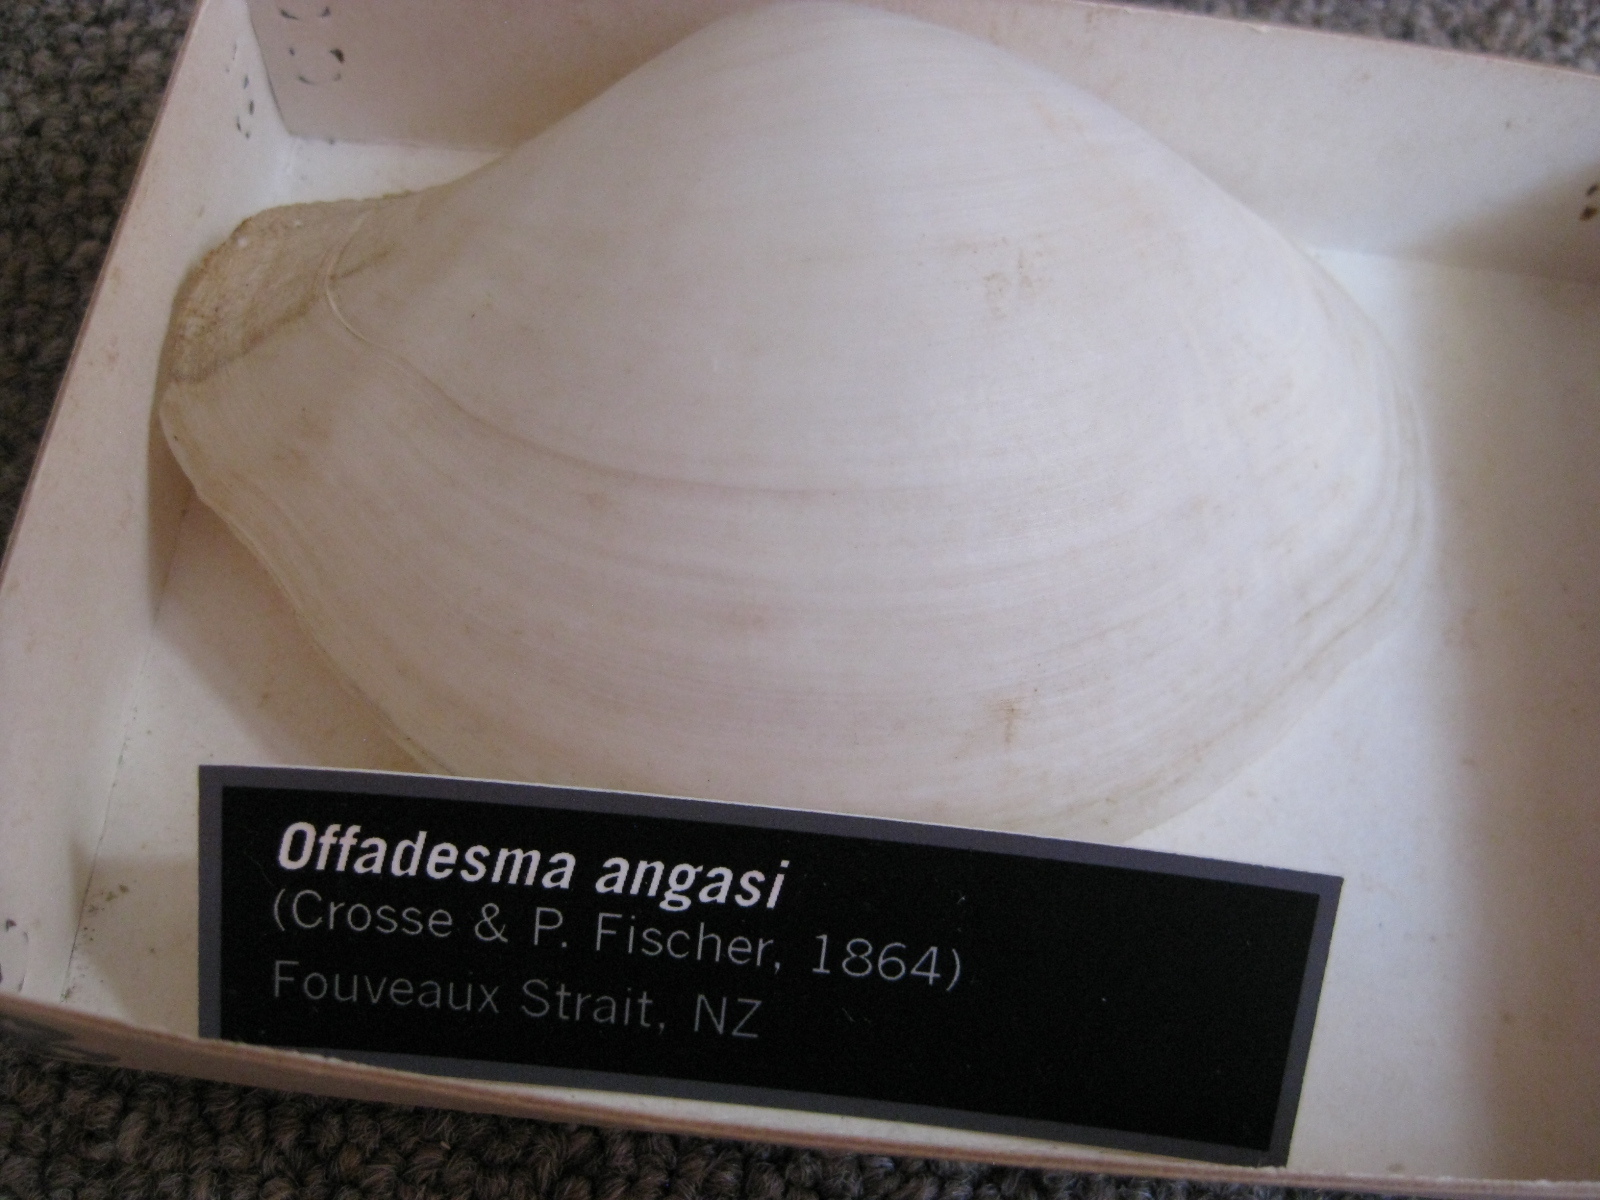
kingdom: Animalia
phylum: Mollusca
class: Bivalvia
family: Periplomatidae
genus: Offadesma
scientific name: Offadesma angasi
